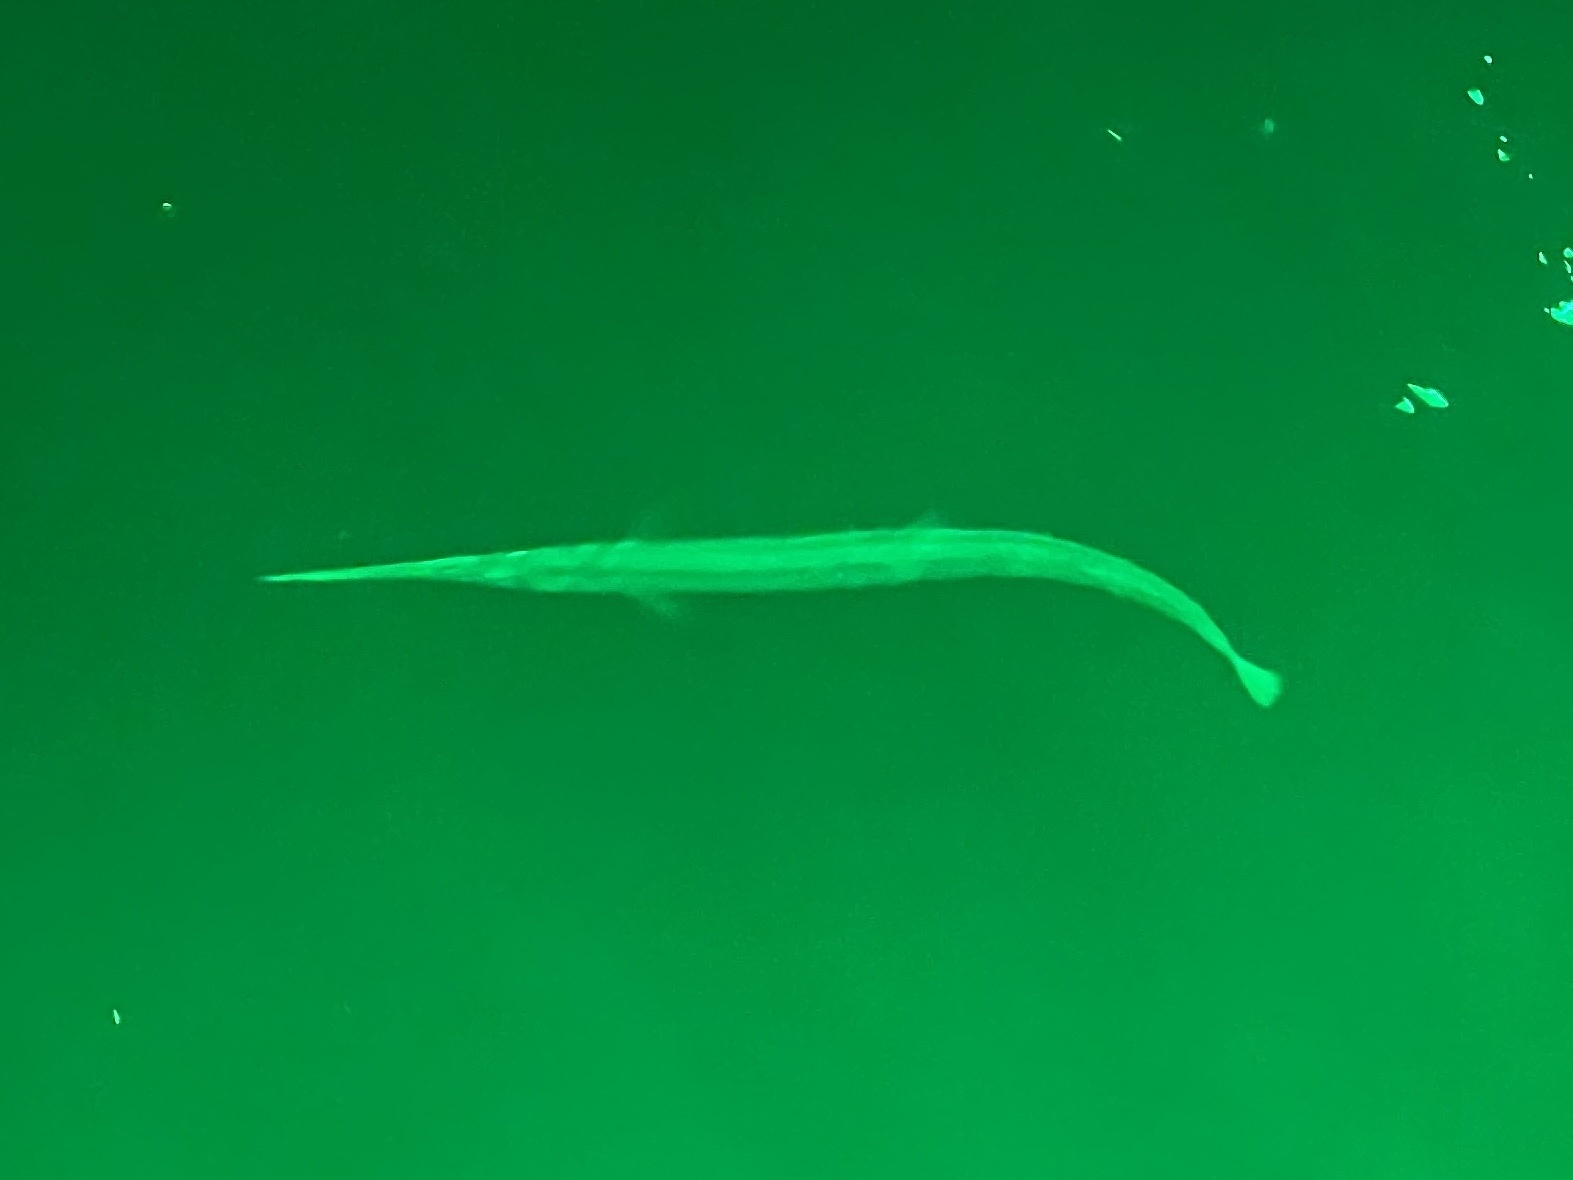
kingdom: Animalia
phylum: Chordata
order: Beloniformes
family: Belonidae
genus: Strongylura
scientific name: Strongylura marina
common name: Atlantic needlefish
